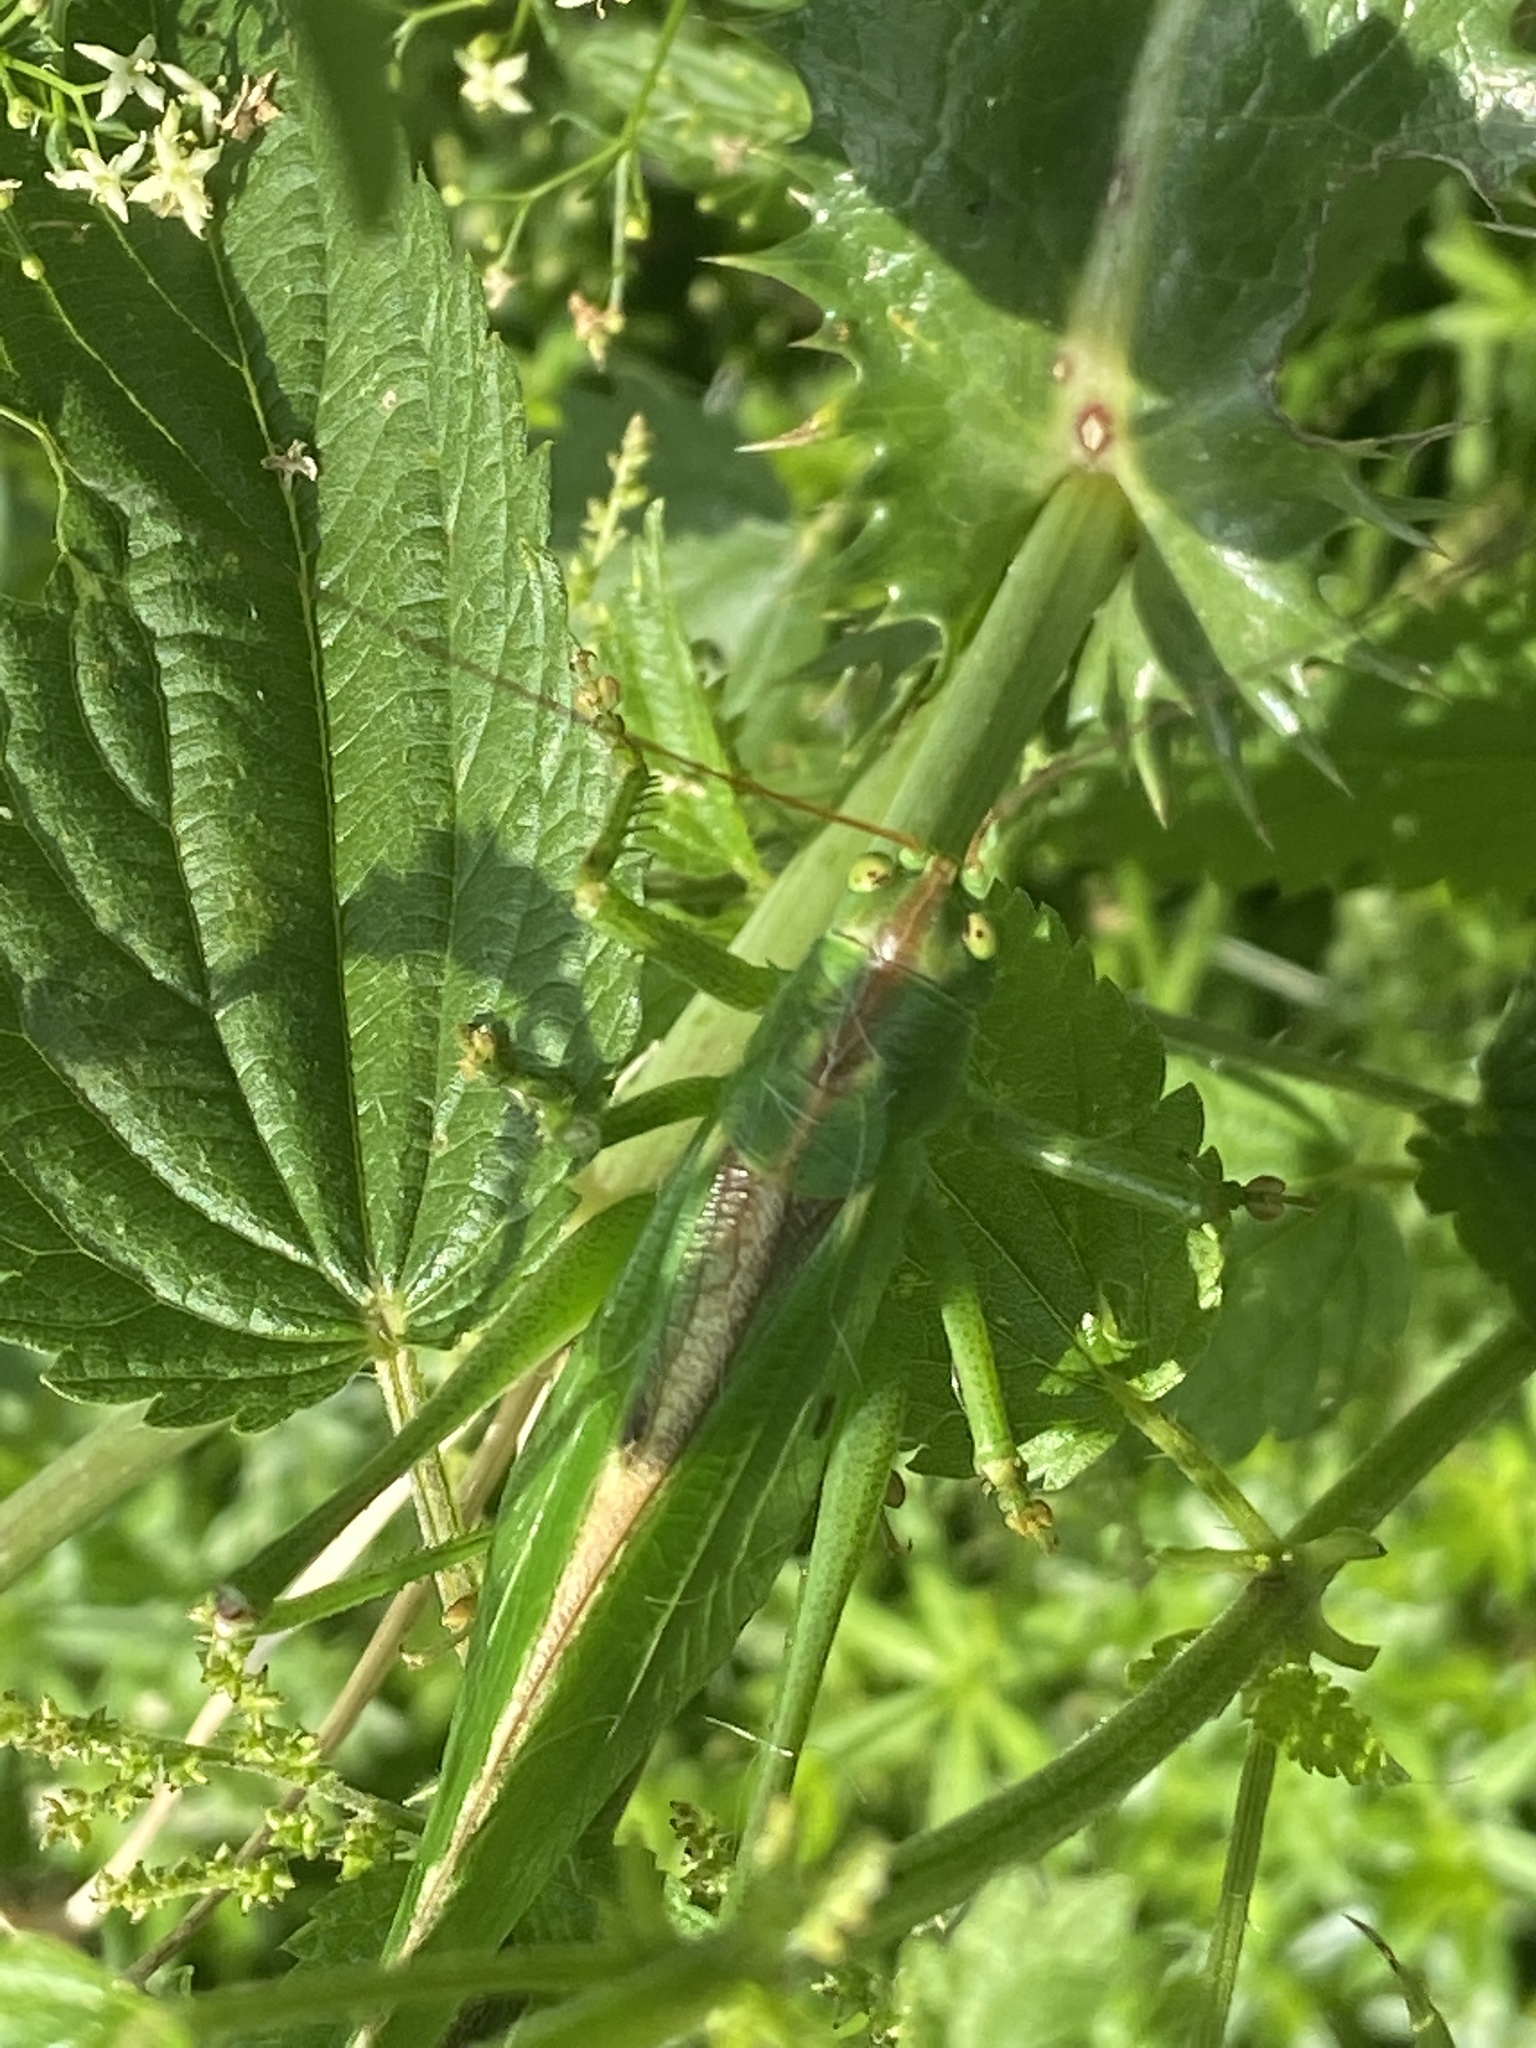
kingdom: Animalia
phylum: Arthropoda
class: Insecta
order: Orthoptera
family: Tettigoniidae
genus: Tettigonia
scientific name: Tettigonia viridissima
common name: Great green bush-cricket
